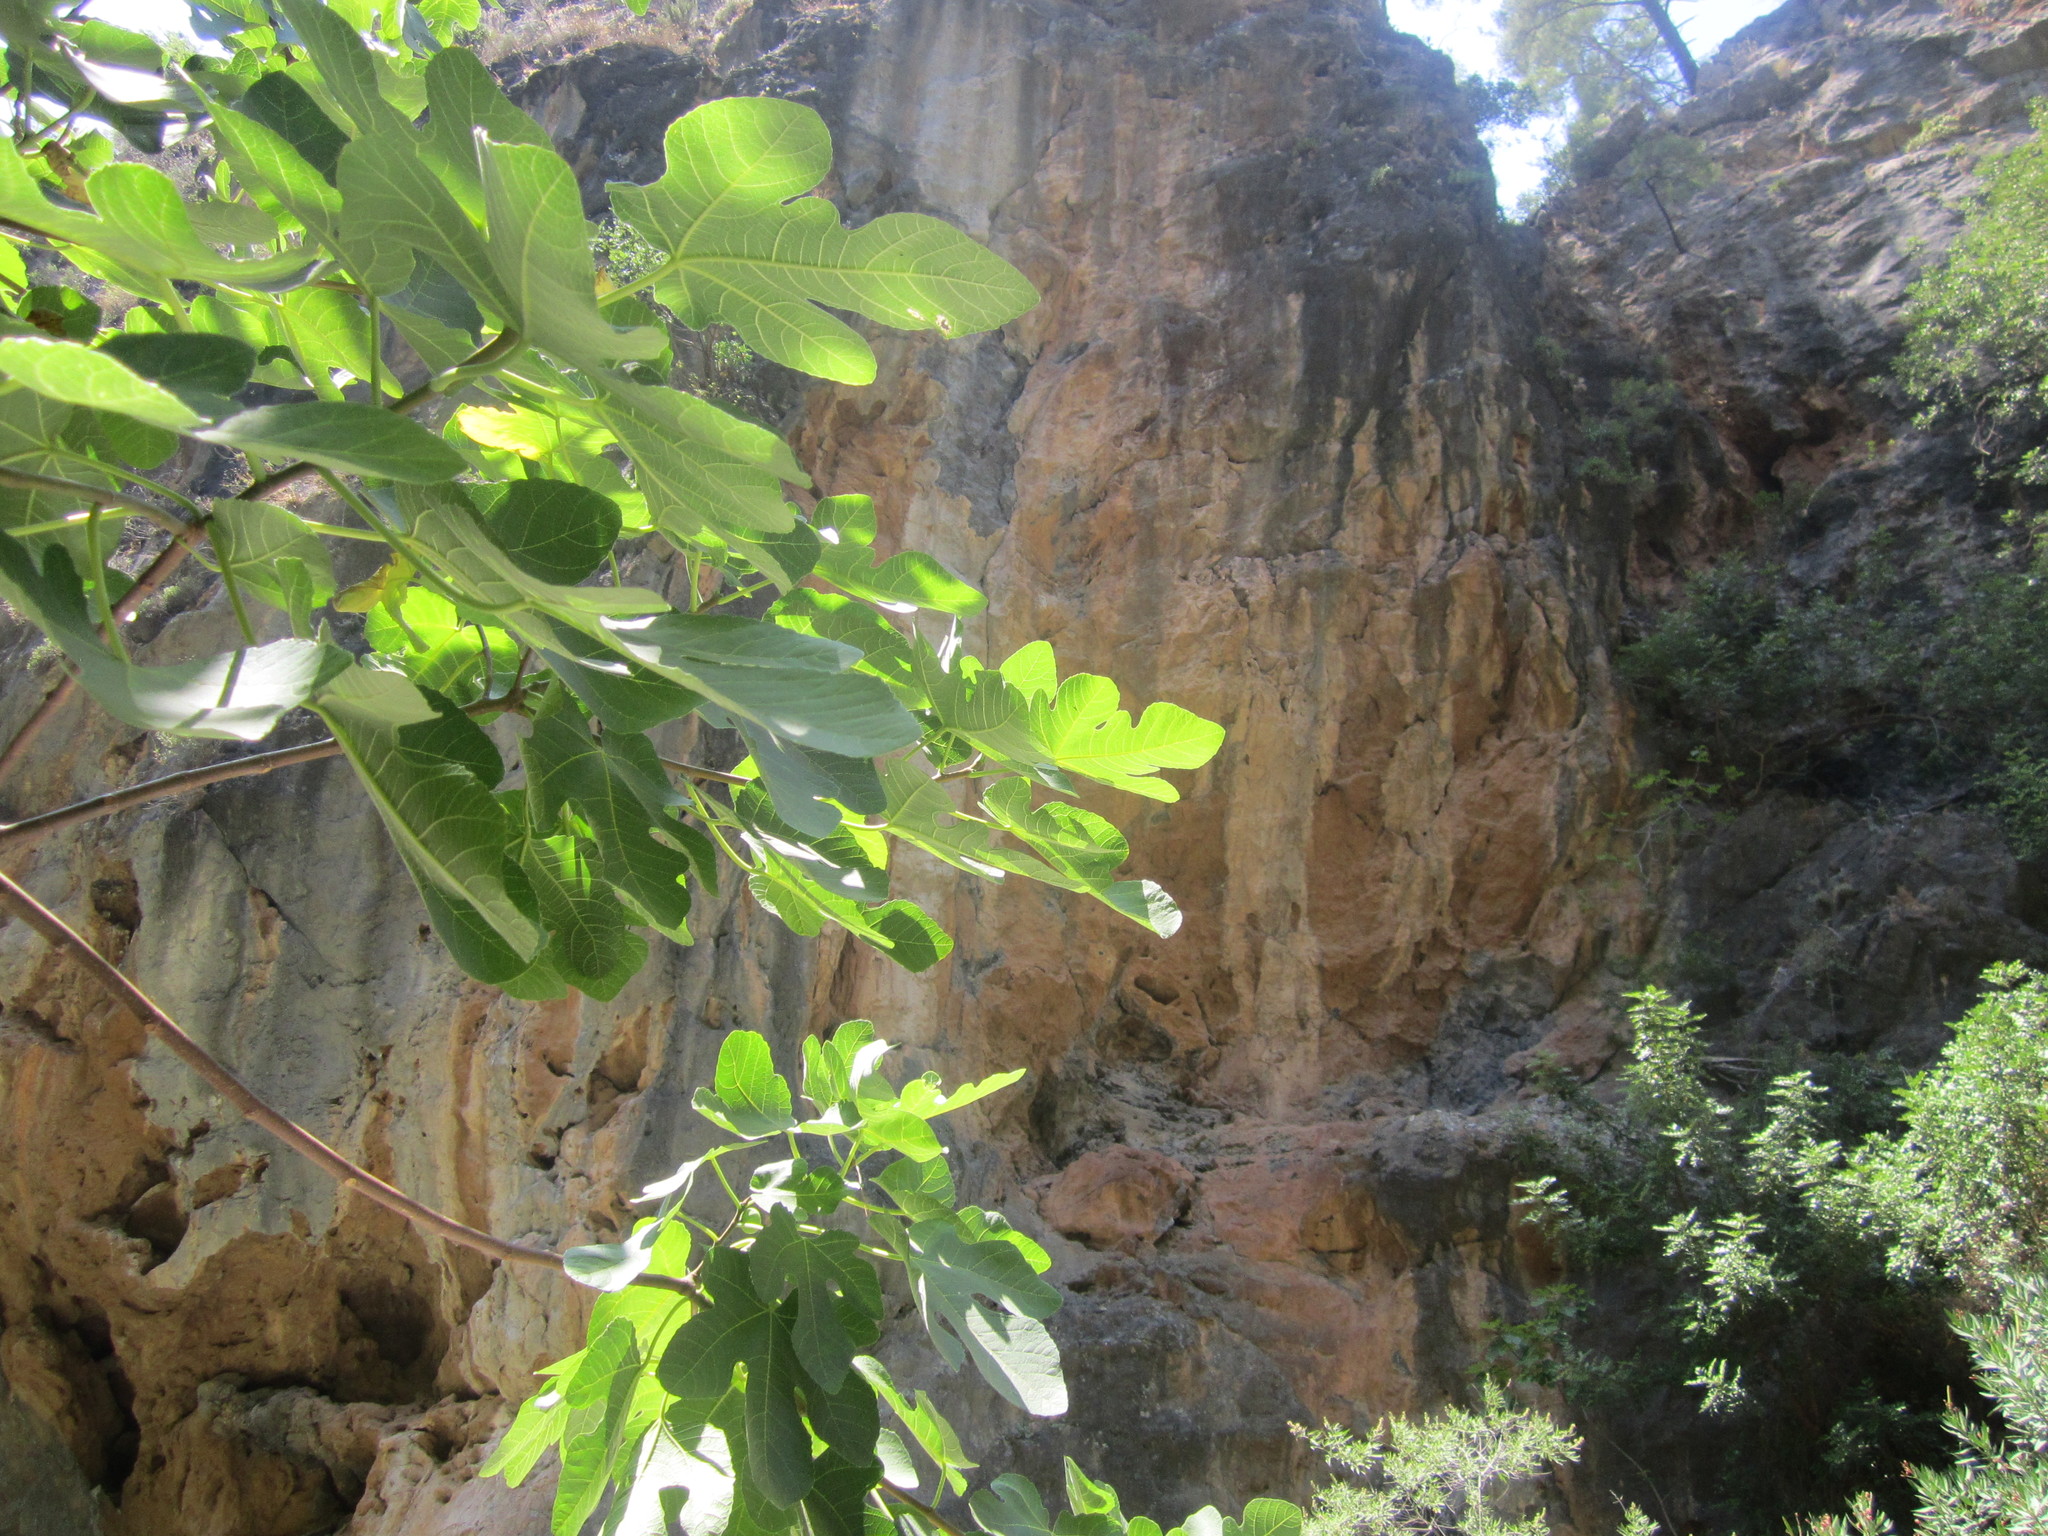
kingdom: Plantae
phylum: Tracheophyta
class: Magnoliopsida
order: Rosales
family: Moraceae
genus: Ficus
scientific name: Ficus carica
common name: Fig
